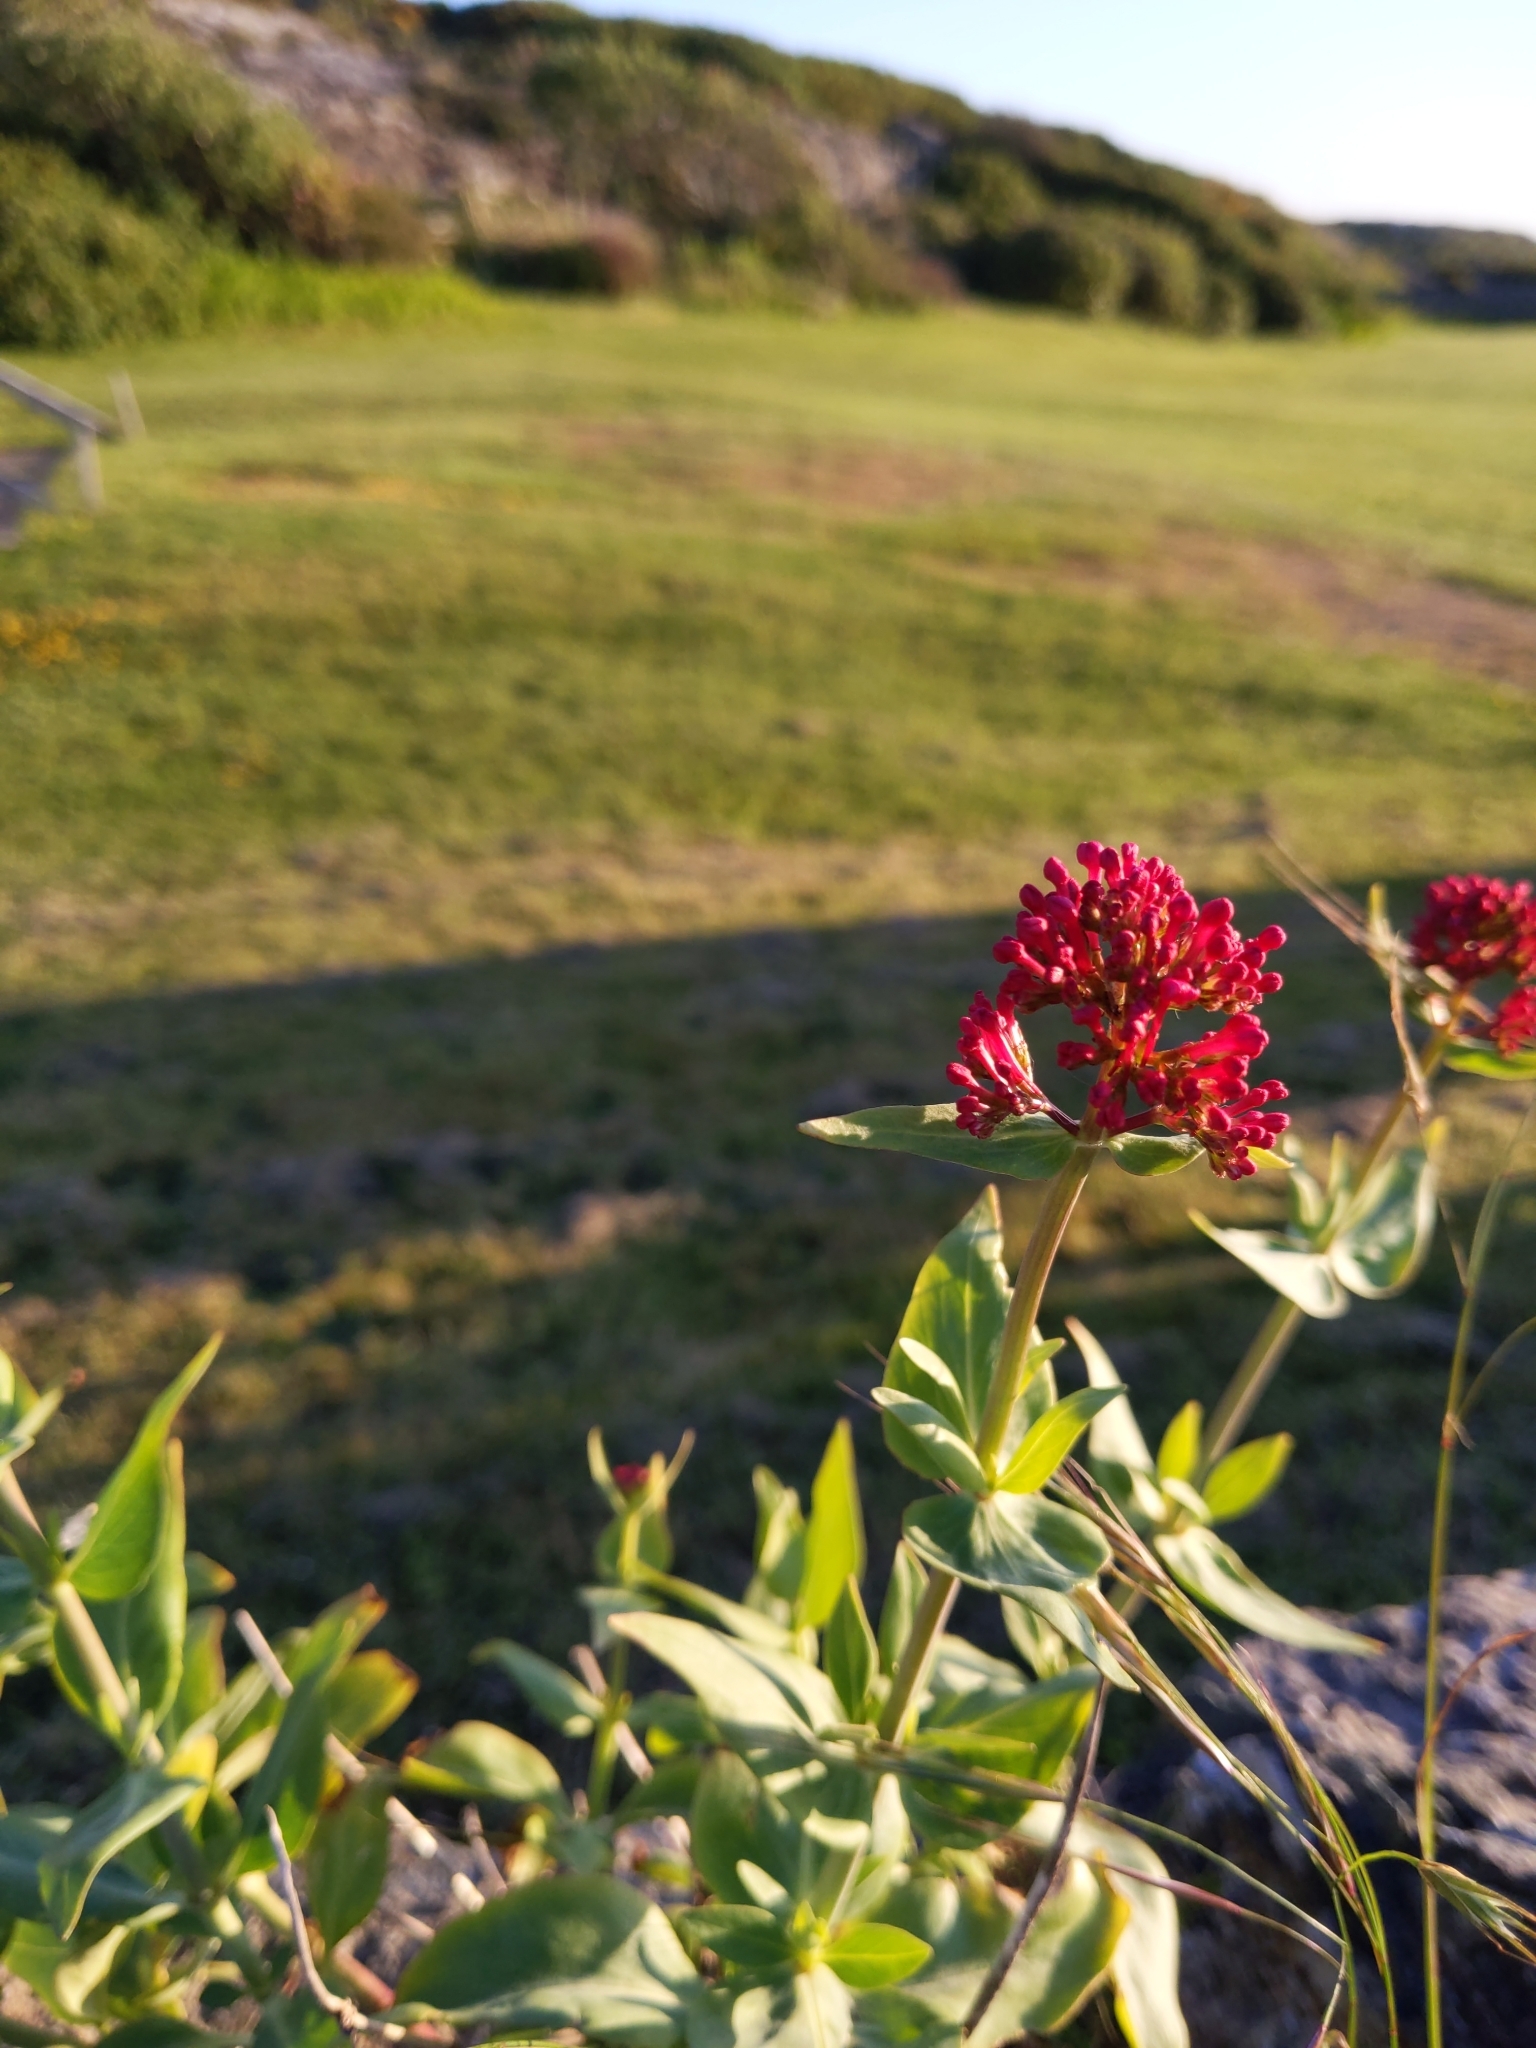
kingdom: Plantae
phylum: Tracheophyta
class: Magnoliopsida
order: Dipsacales
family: Caprifoliaceae
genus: Centranthus
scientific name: Centranthus ruber
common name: Red valerian
